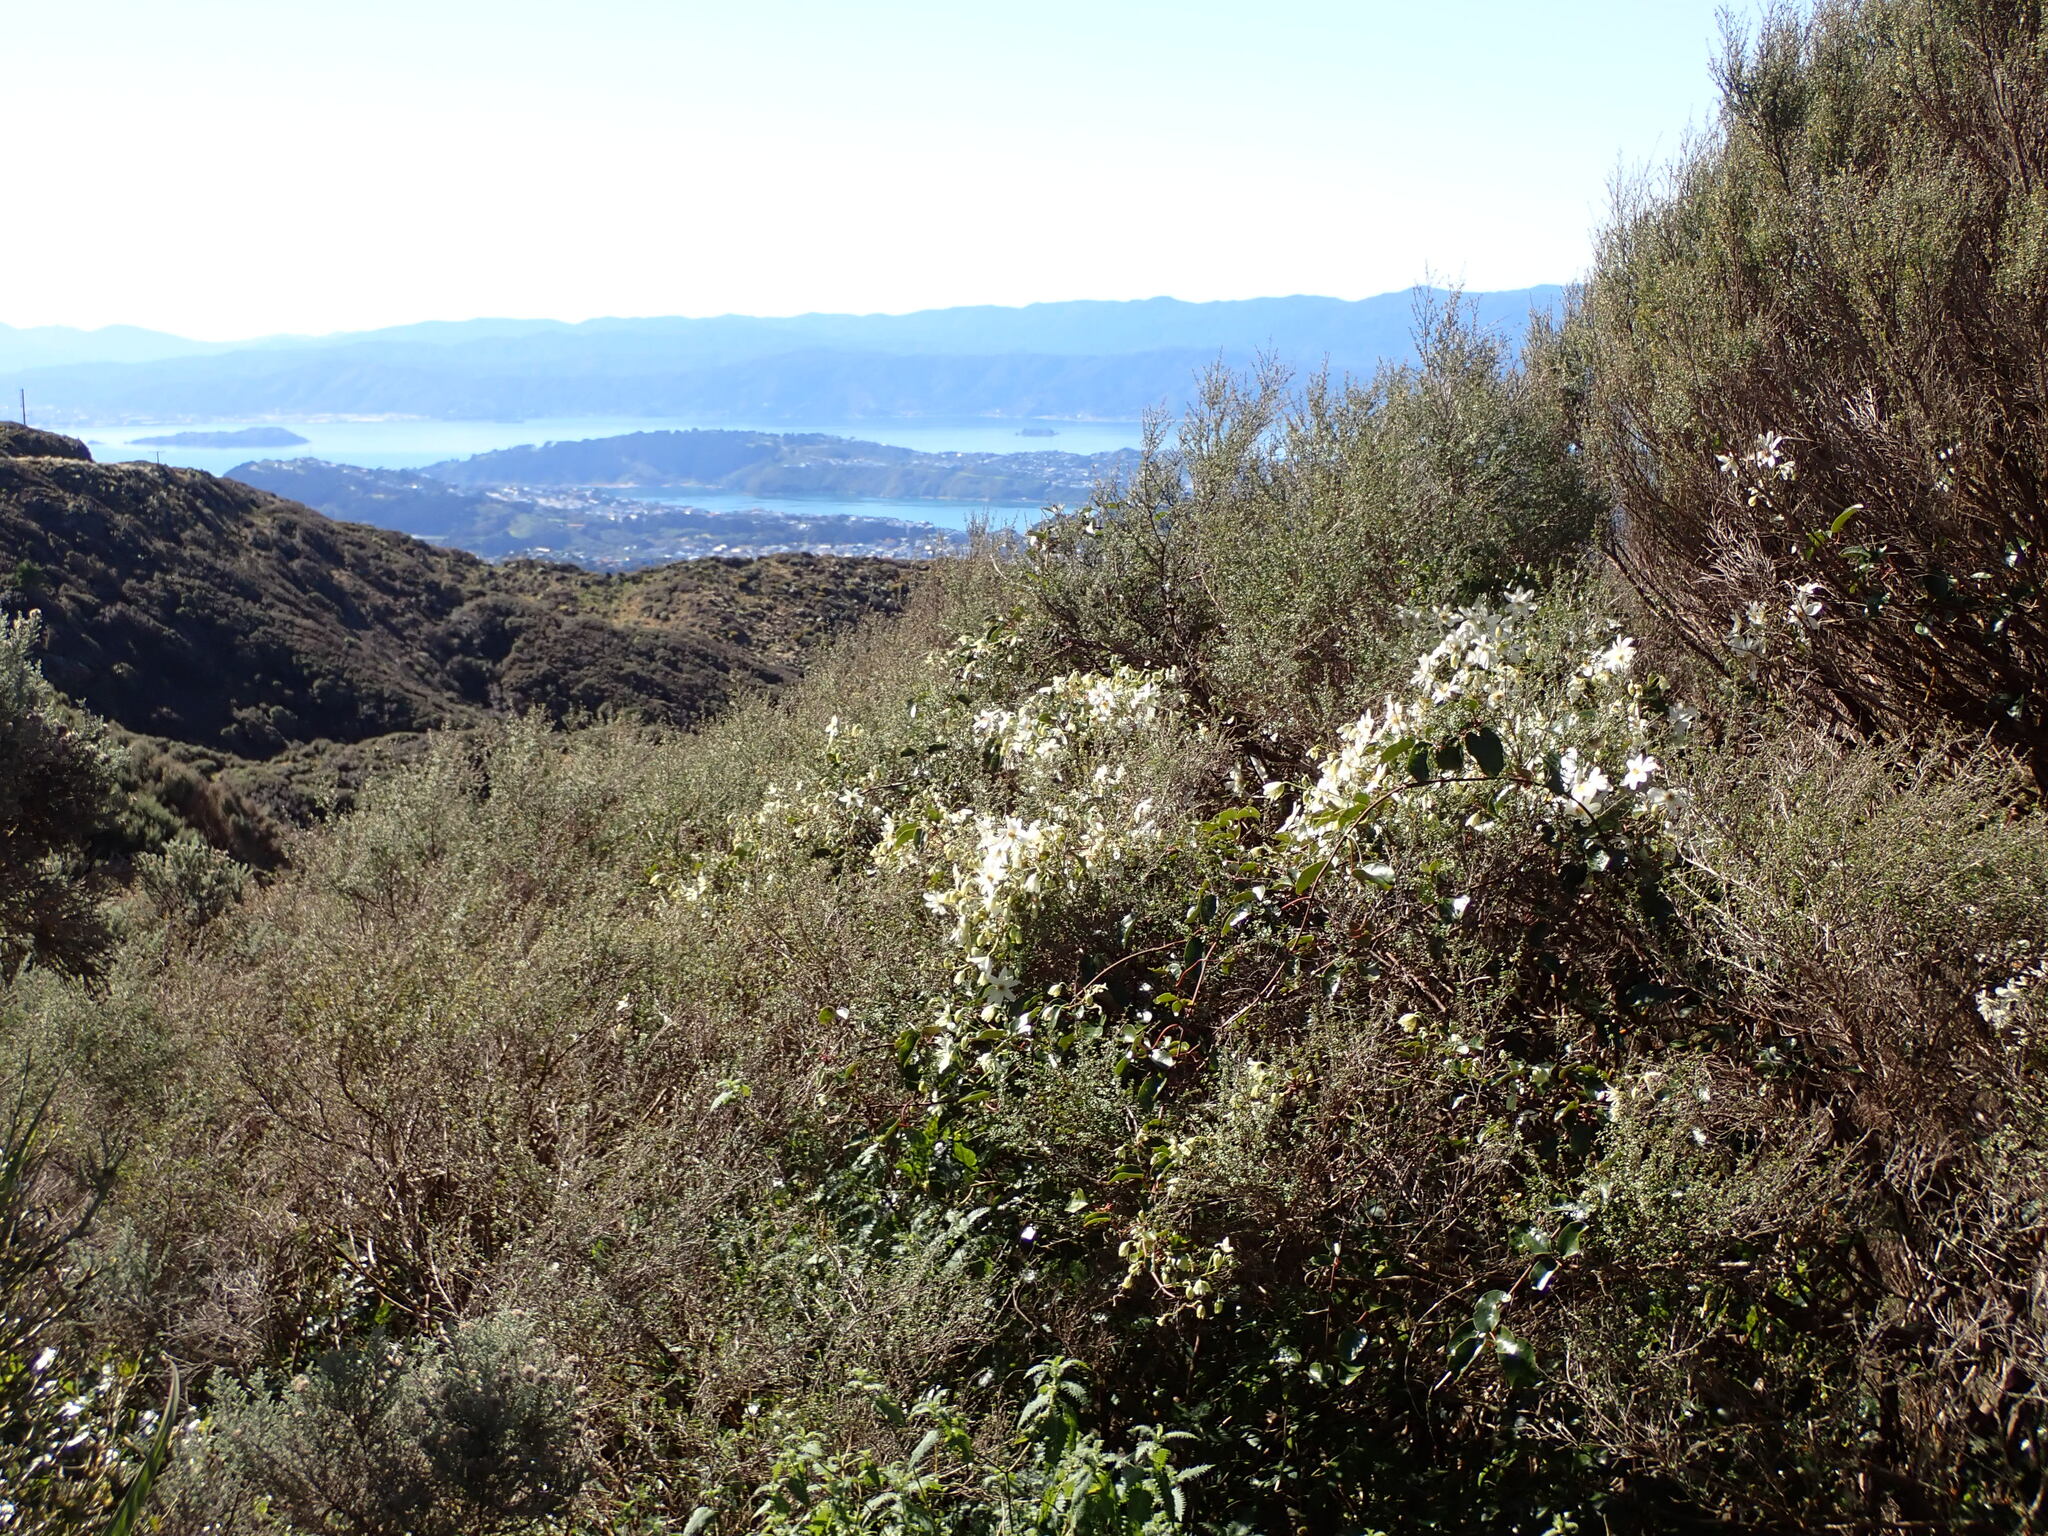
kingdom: Plantae
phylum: Tracheophyta
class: Magnoliopsida
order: Ranunculales
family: Ranunculaceae
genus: Clematis
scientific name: Clematis paniculata
